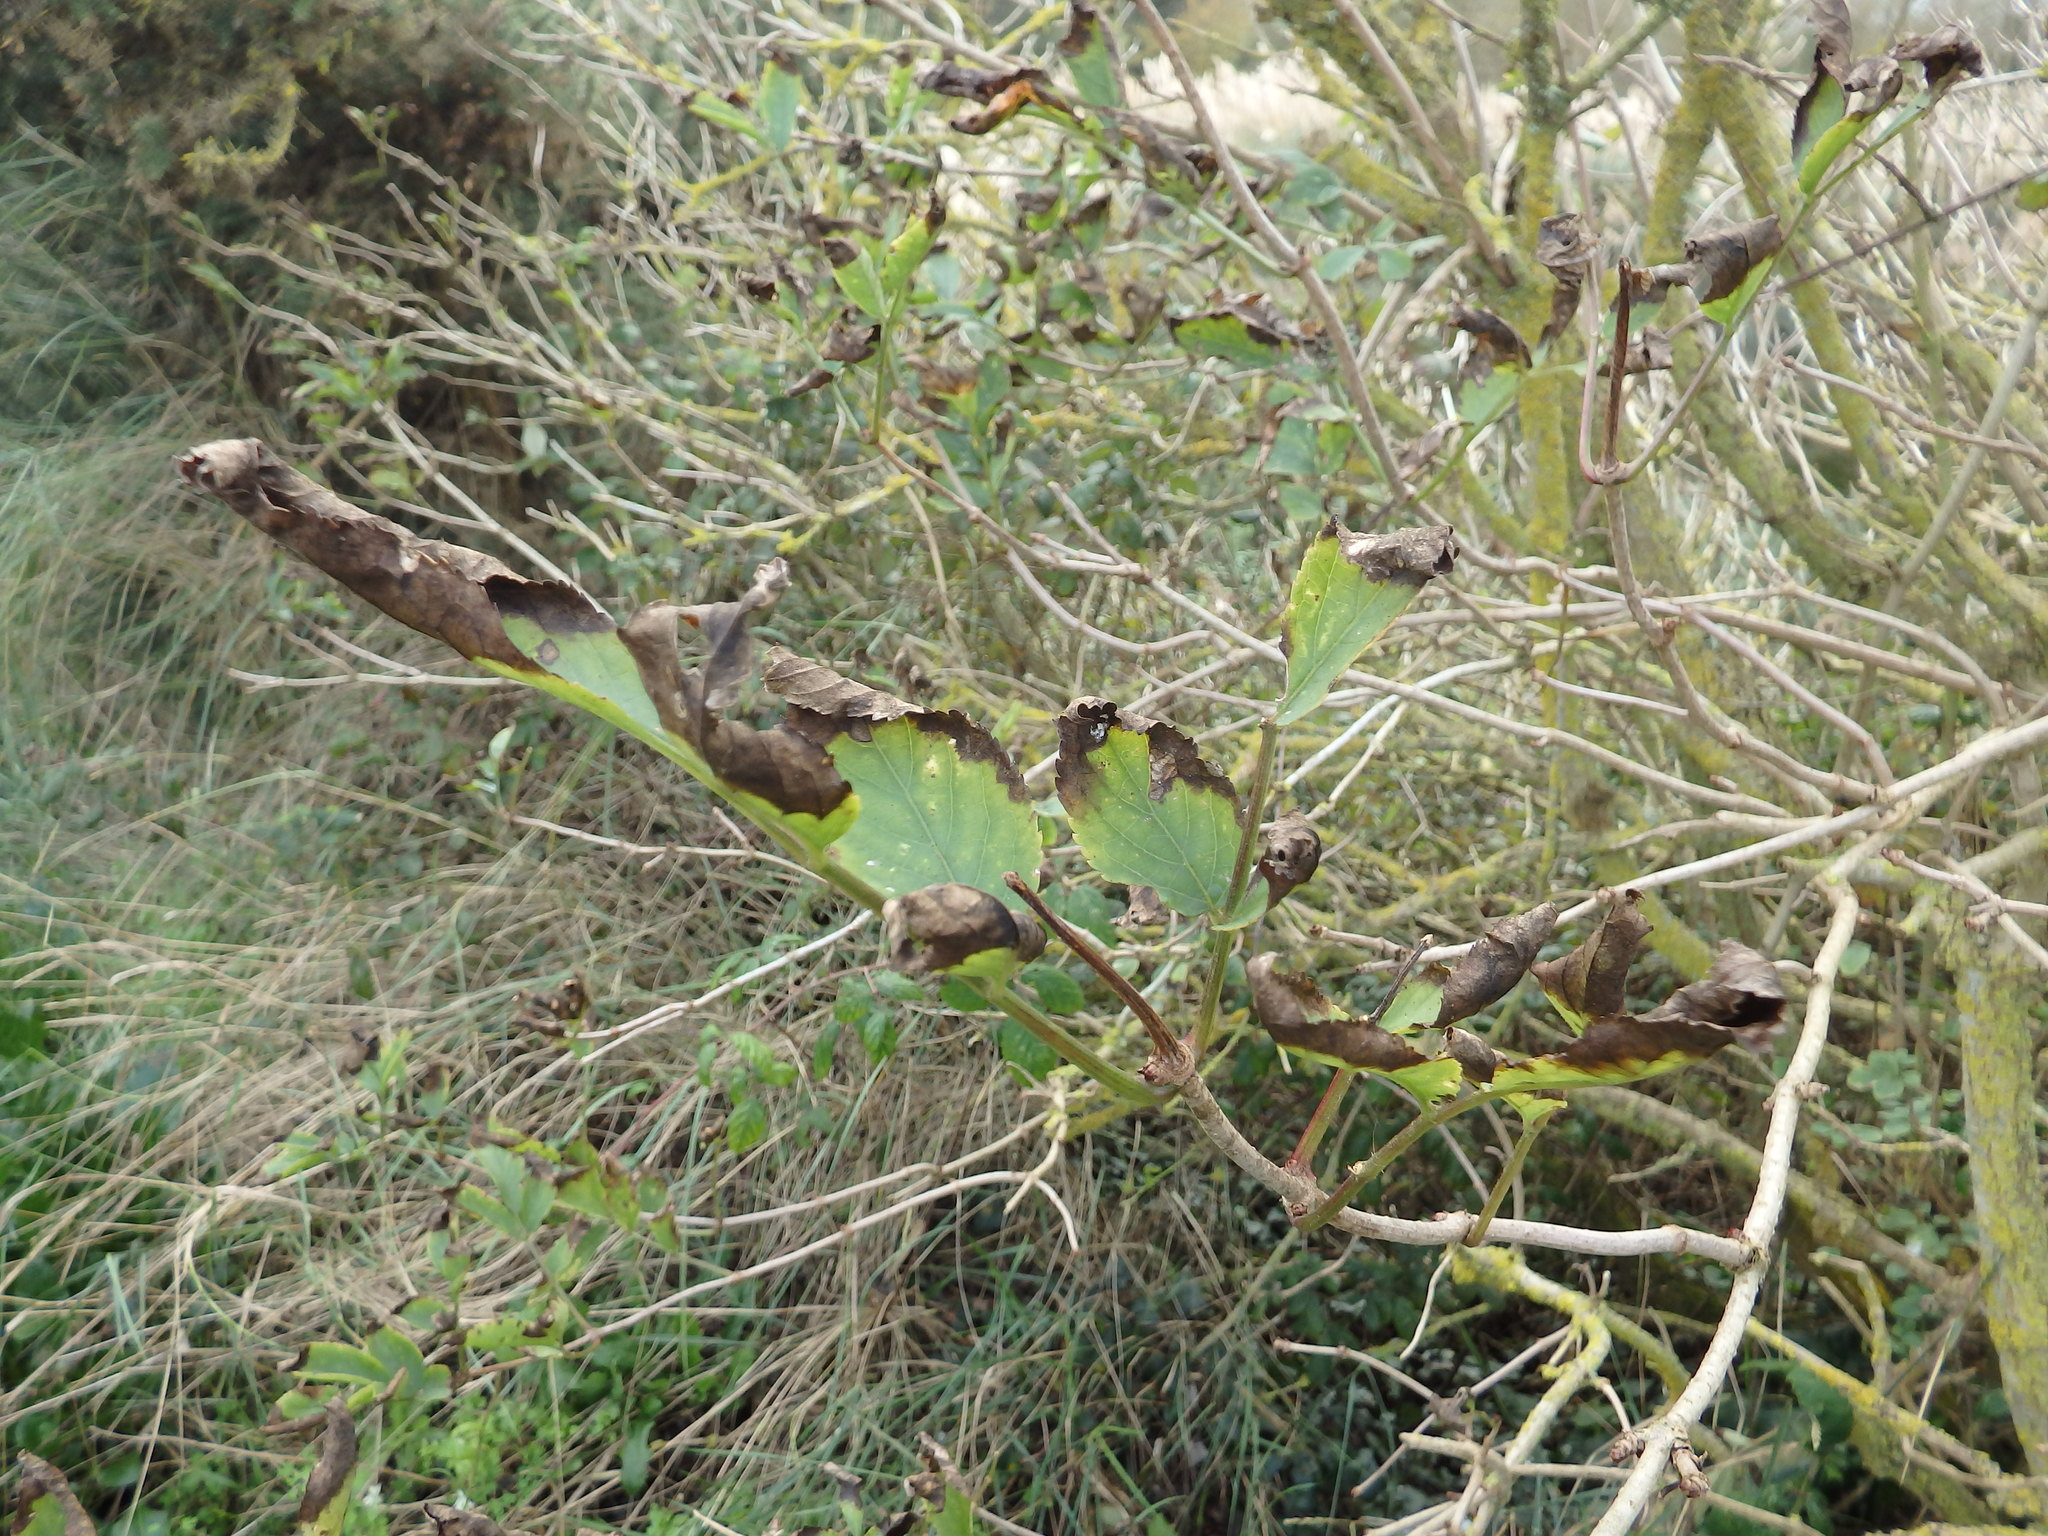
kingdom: Plantae
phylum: Tracheophyta
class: Magnoliopsida
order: Dipsacales
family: Viburnaceae
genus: Sambucus
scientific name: Sambucus nigra
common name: Elder
